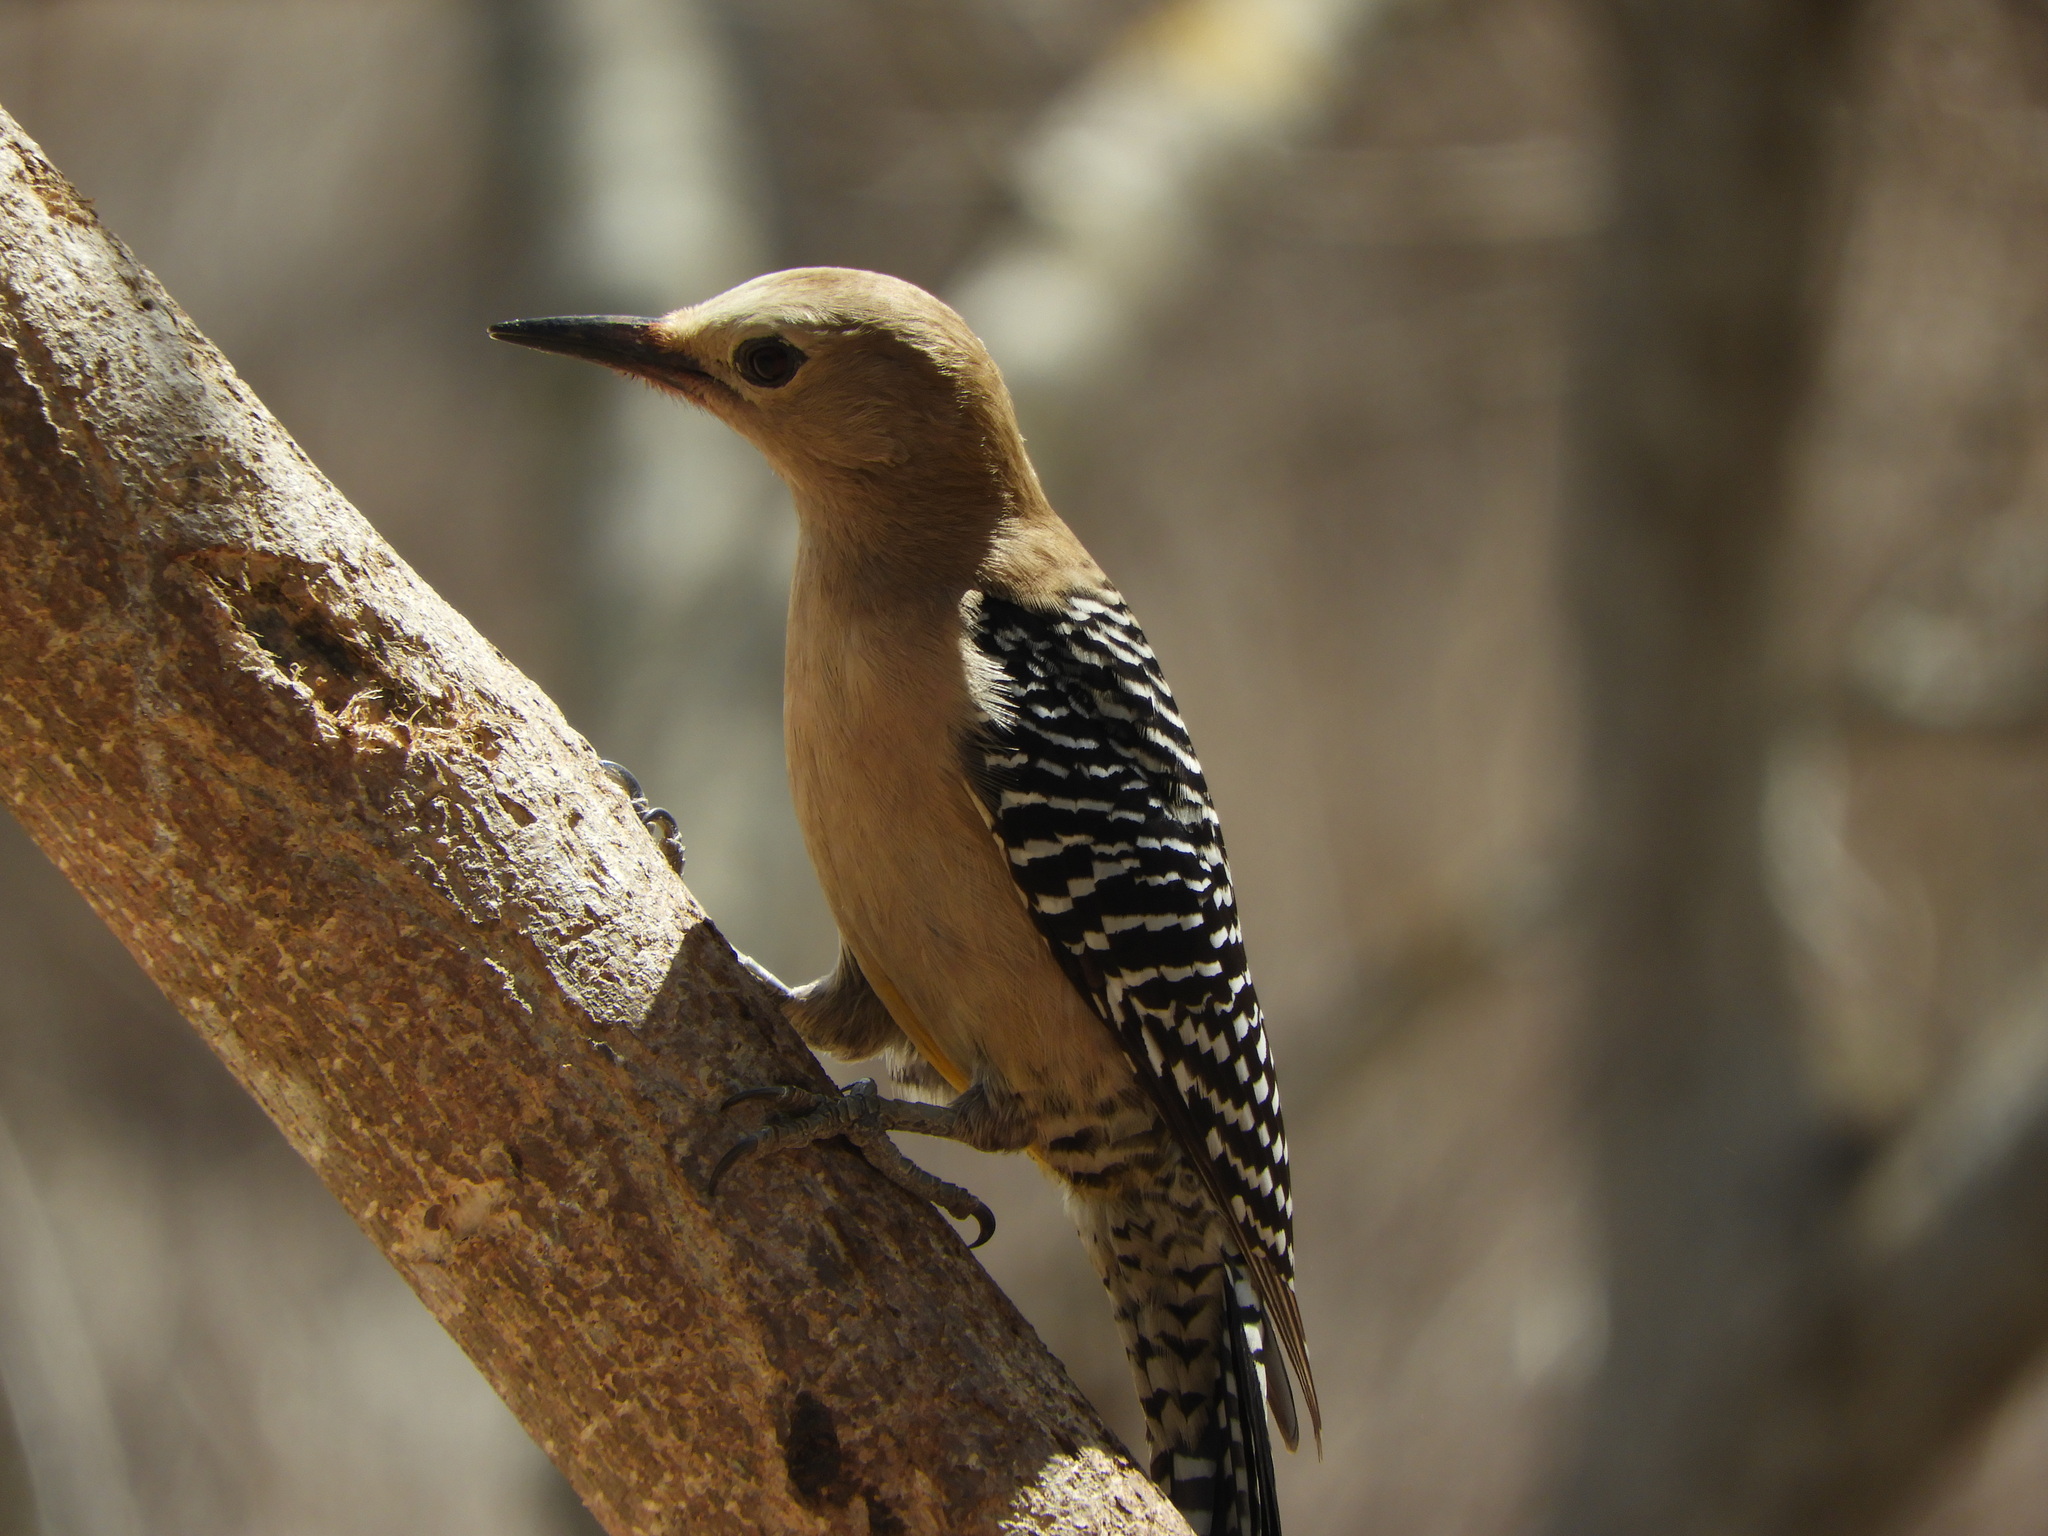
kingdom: Animalia
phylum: Chordata
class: Aves
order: Piciformes
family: Picidae
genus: Melanerpes
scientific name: Melanerpes uropygialis
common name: Gila woodpecker
